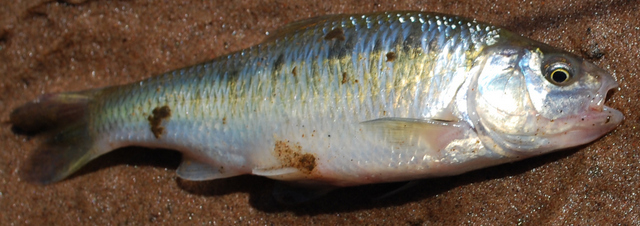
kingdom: Animalia
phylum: Chordata
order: Cypriniformes
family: Cyprinidae
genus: Luxilus
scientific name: Luxilus cornutus
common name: Common shiner
